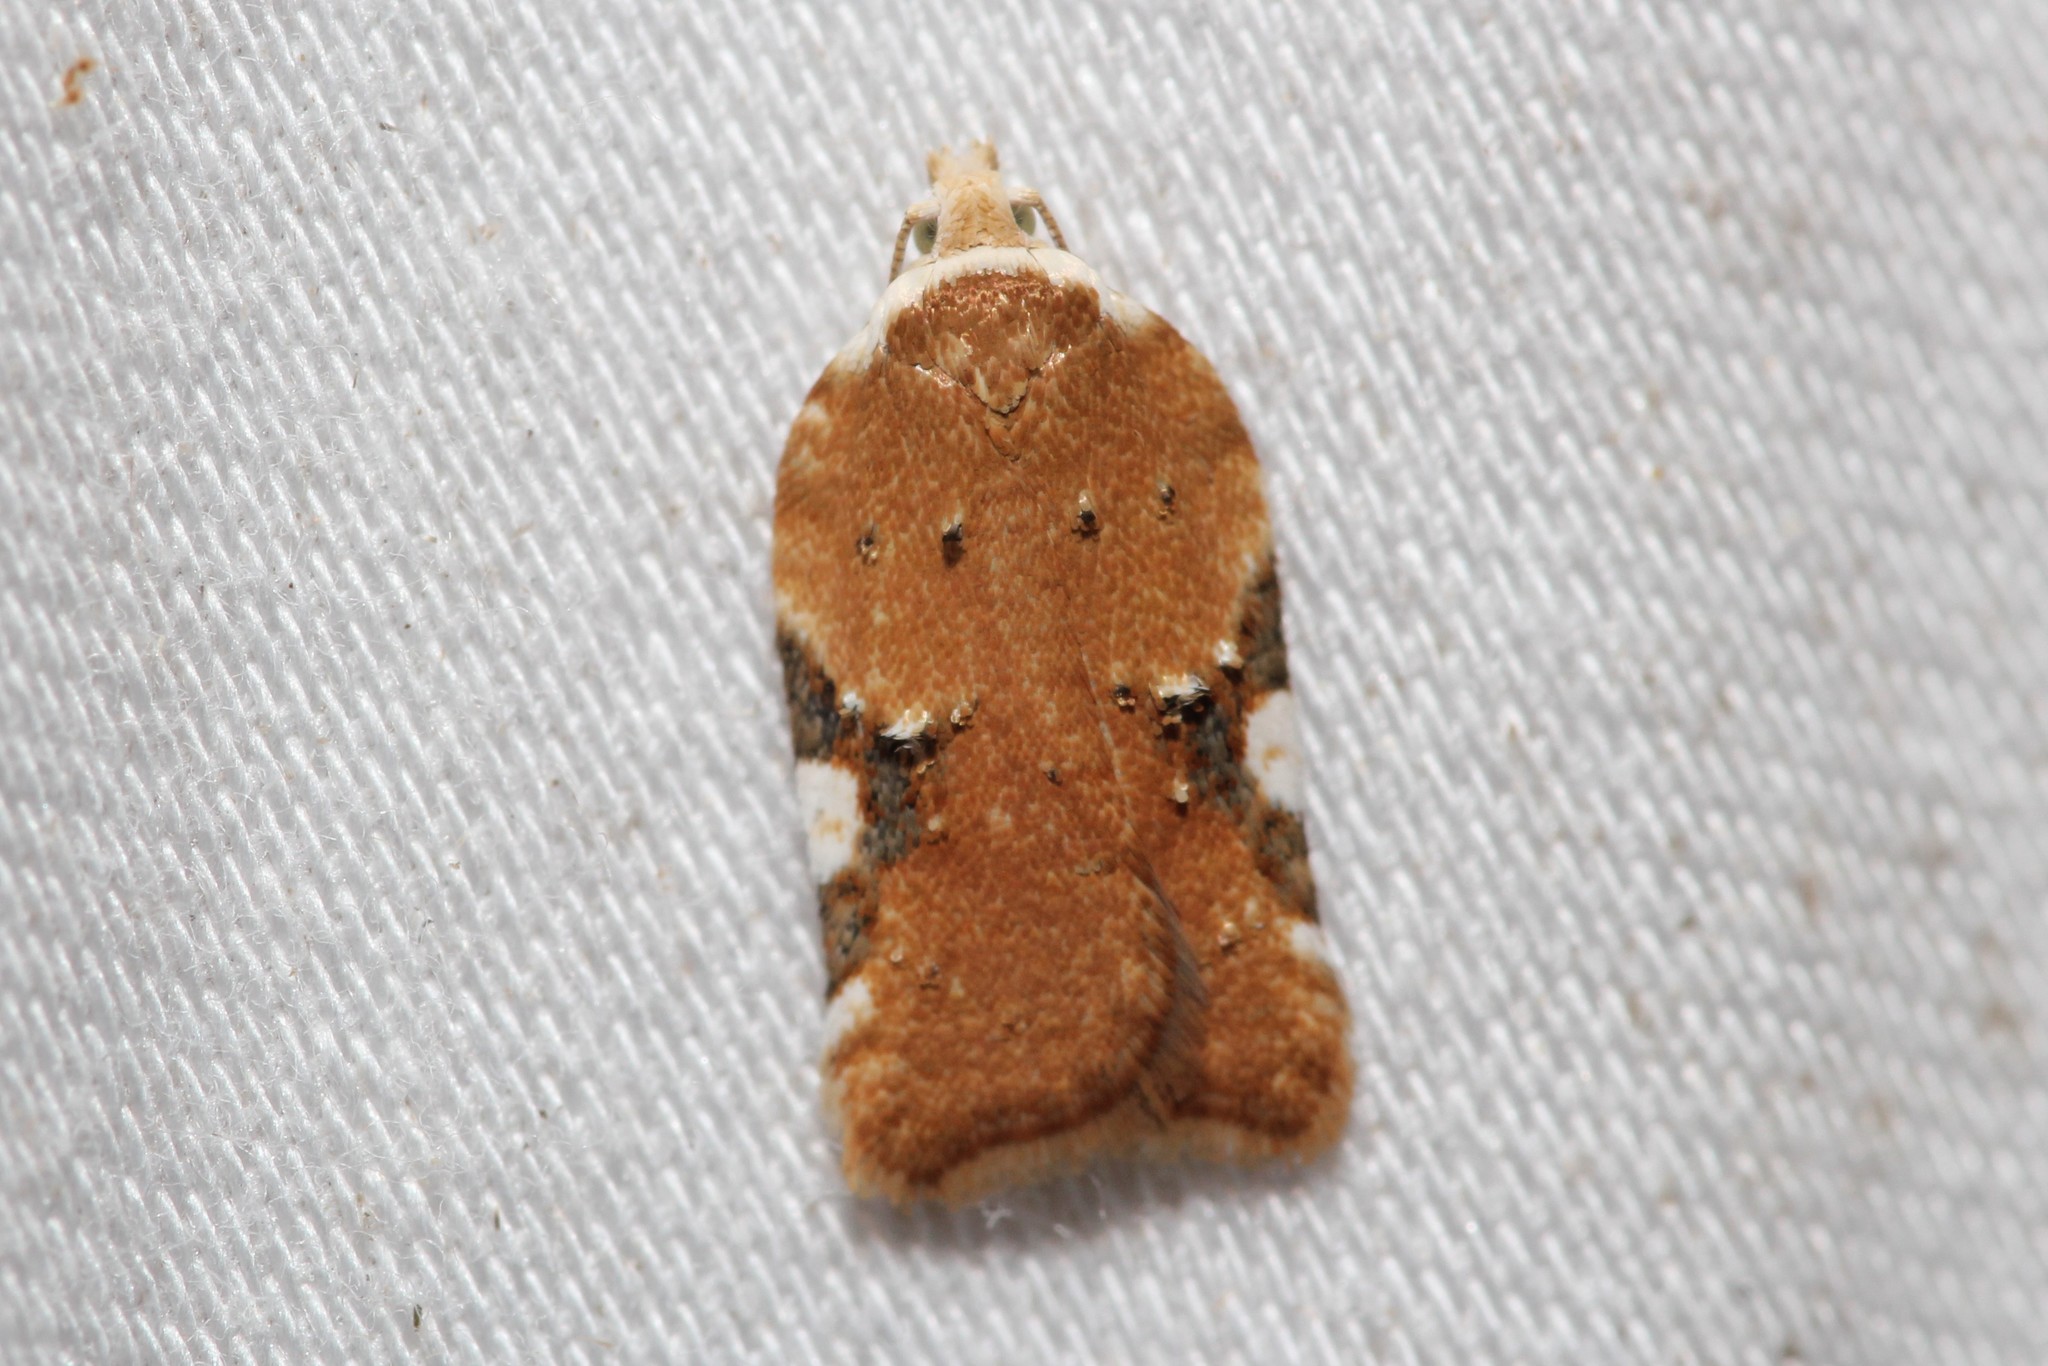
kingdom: Animalia
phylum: Arthropoda
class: Insecta
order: Lepidoptera
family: Tortricidae
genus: Acleris
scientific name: Acleris cervinana
